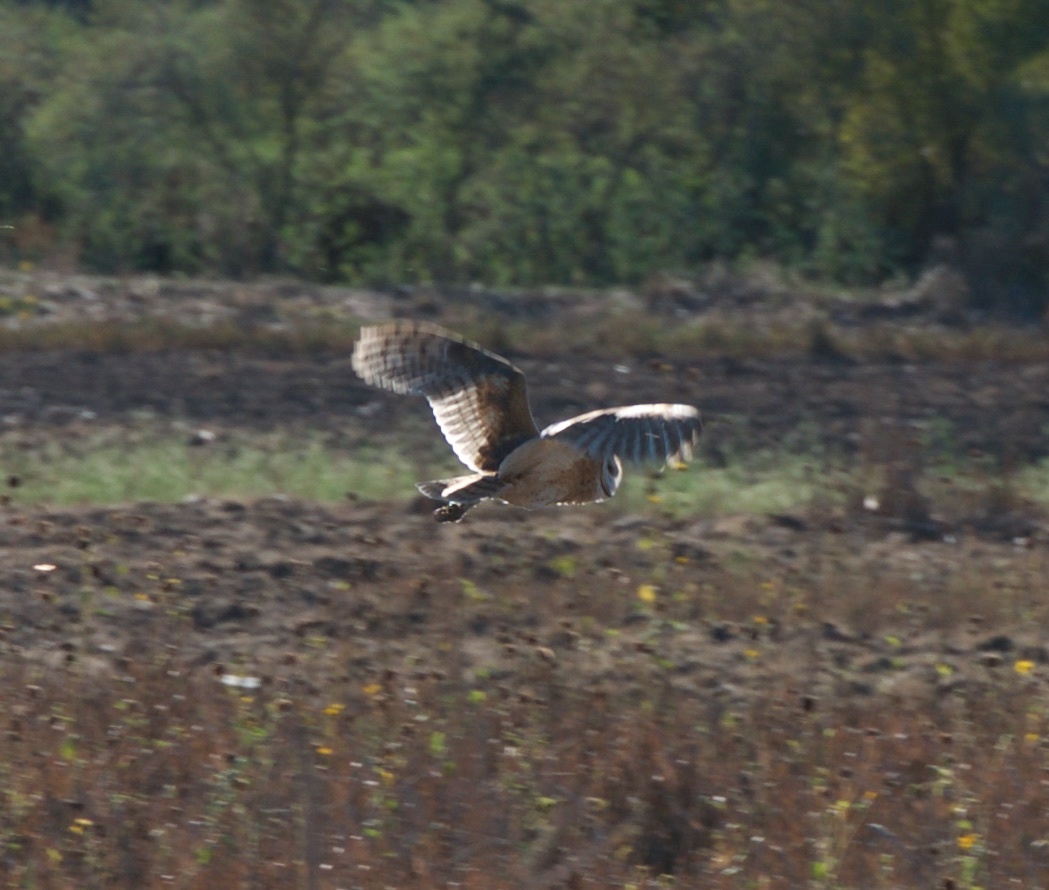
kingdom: Animalia
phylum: Chordata
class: Aves
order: Strigiformes
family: Tytonidae
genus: Tyto
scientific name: Tyto alba
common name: Barn owl
